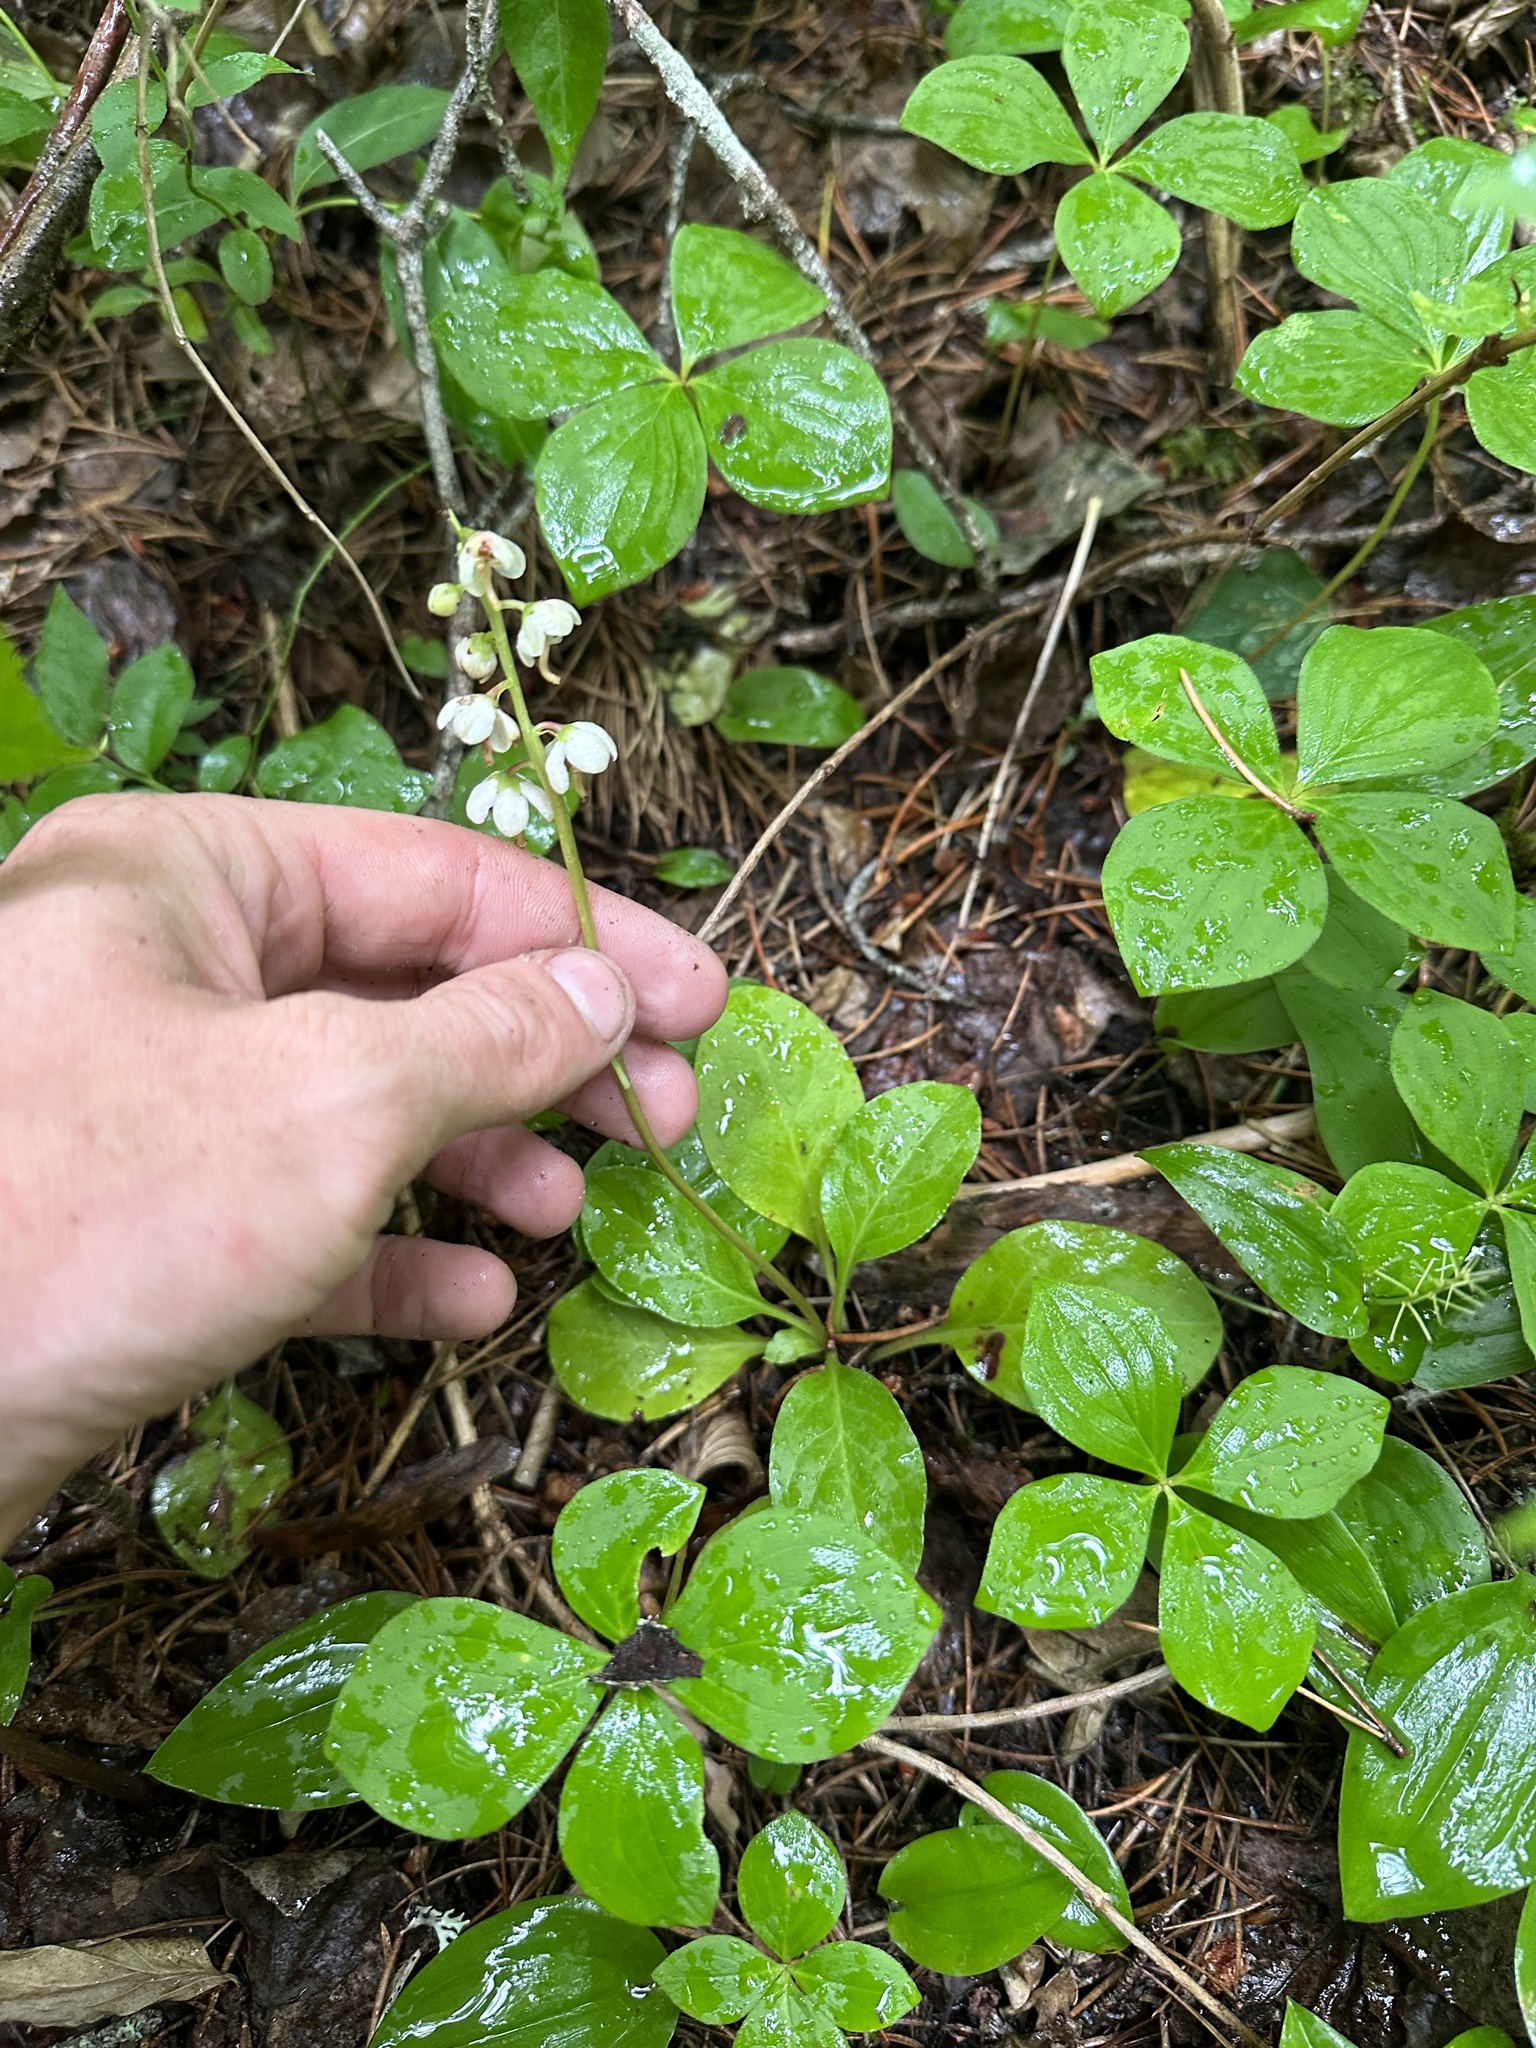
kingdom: Plantae
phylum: Tracheophyta
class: Magnoliopsida
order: Ericales
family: Ericaceae
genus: Pyrola
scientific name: Pyrola elliptica
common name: Shinleaf
